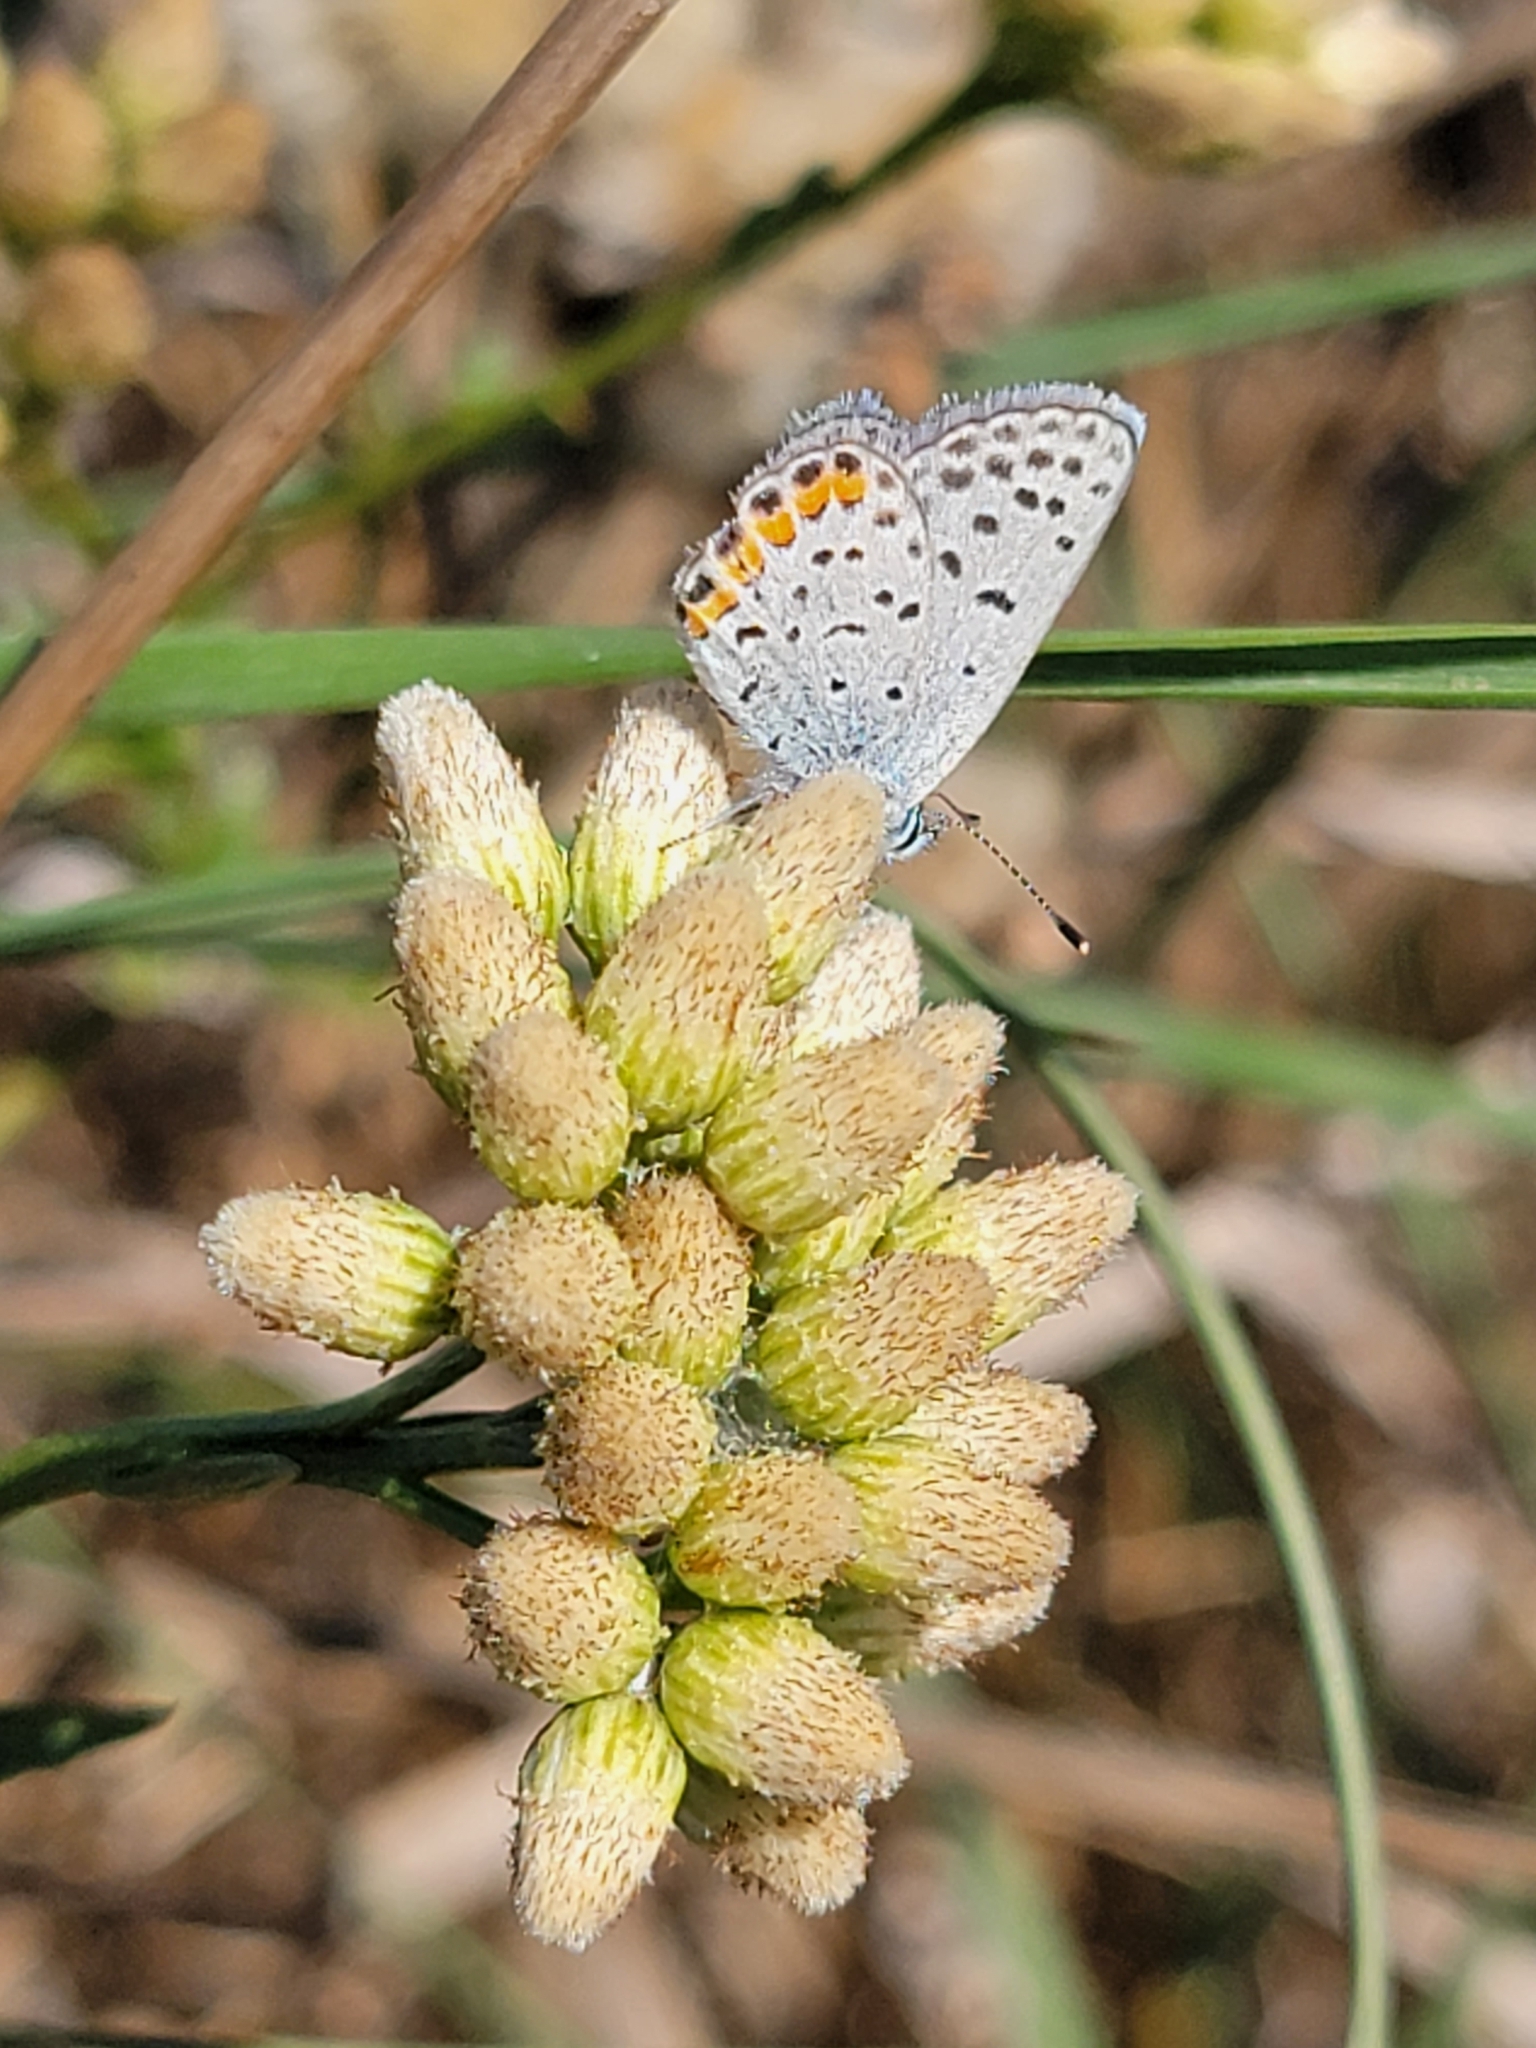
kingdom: Animalia
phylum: Arthropoda
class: Insecta
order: Lepidoptera
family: Lycaenidae
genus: Icaricia
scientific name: Icaricia acmon
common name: Acmon blue
